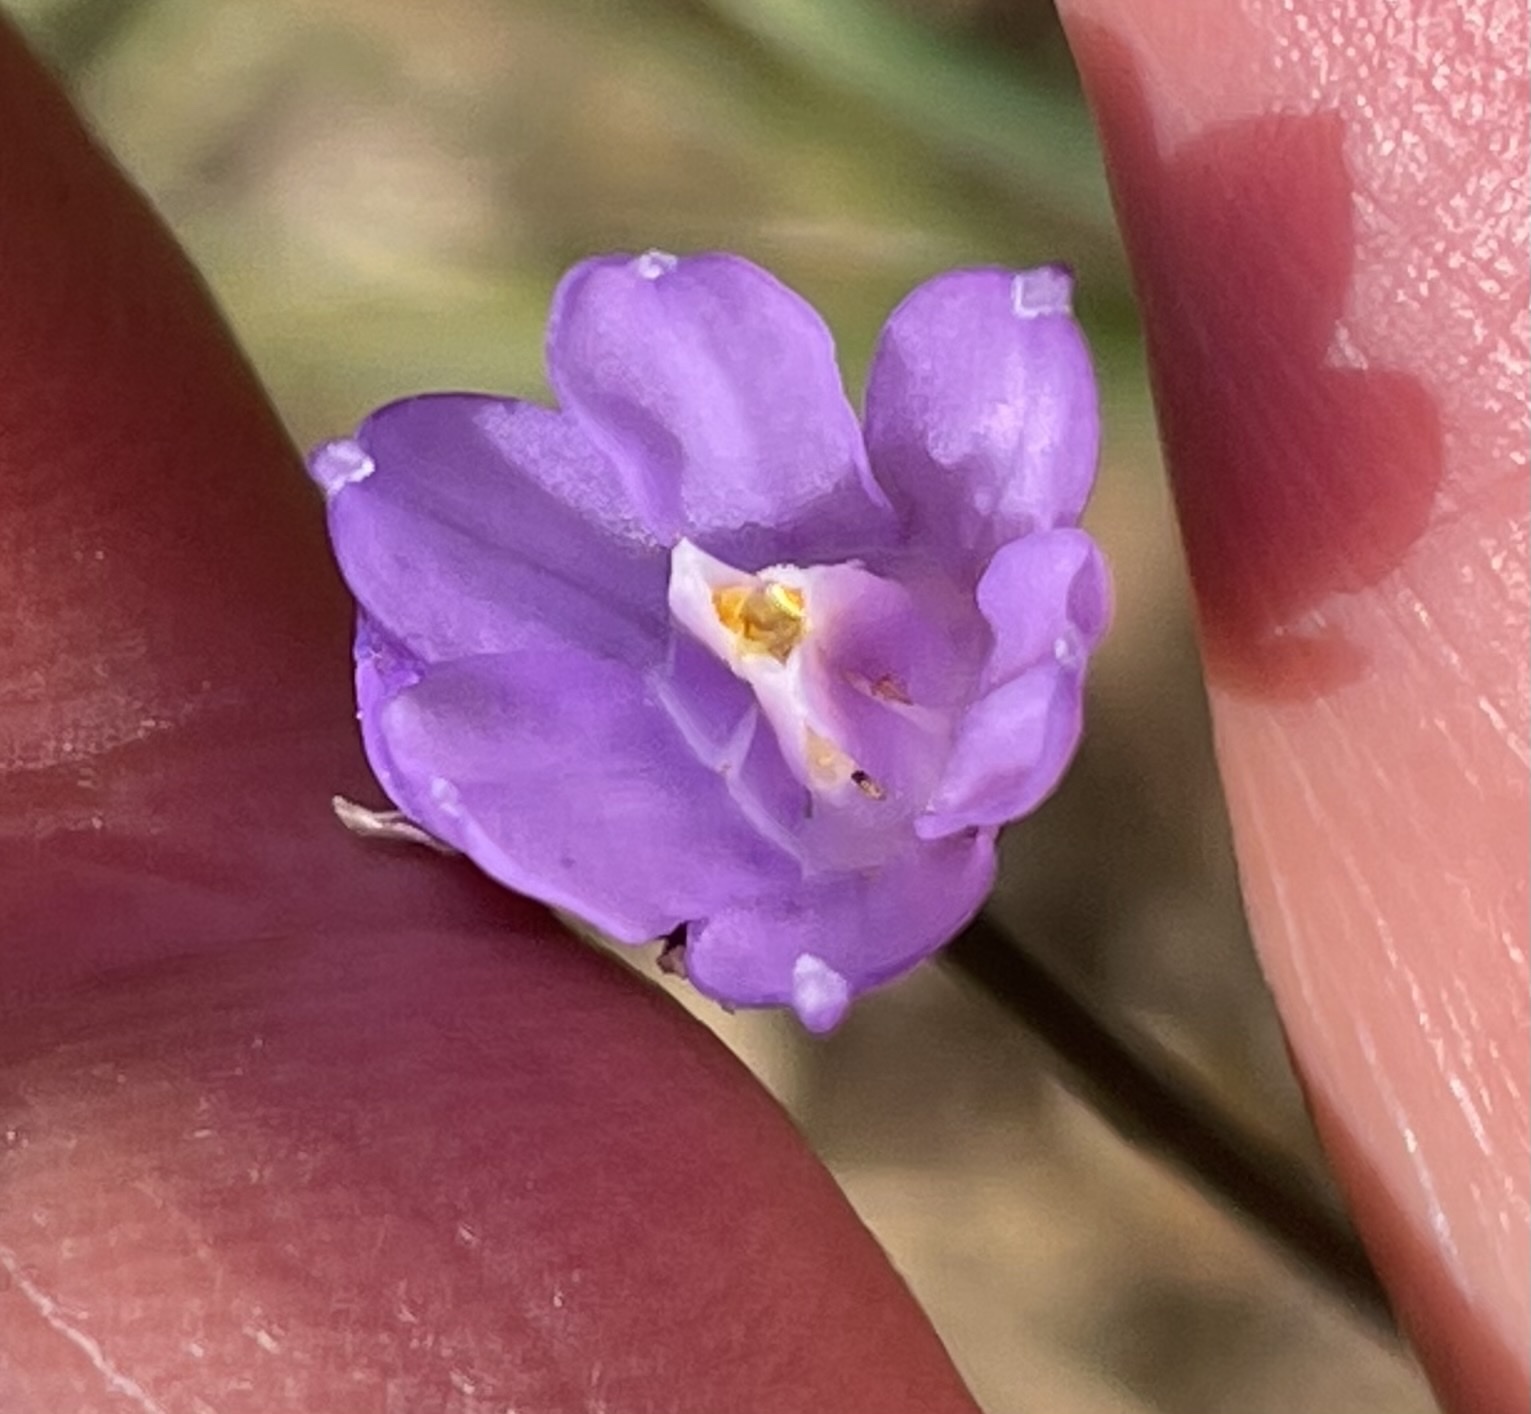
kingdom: Plantae
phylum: Tracheophyta
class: Liliopsida
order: Asparagales
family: Asparagaceae
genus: Dipterostemon
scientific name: Dipterostemon capitatus
